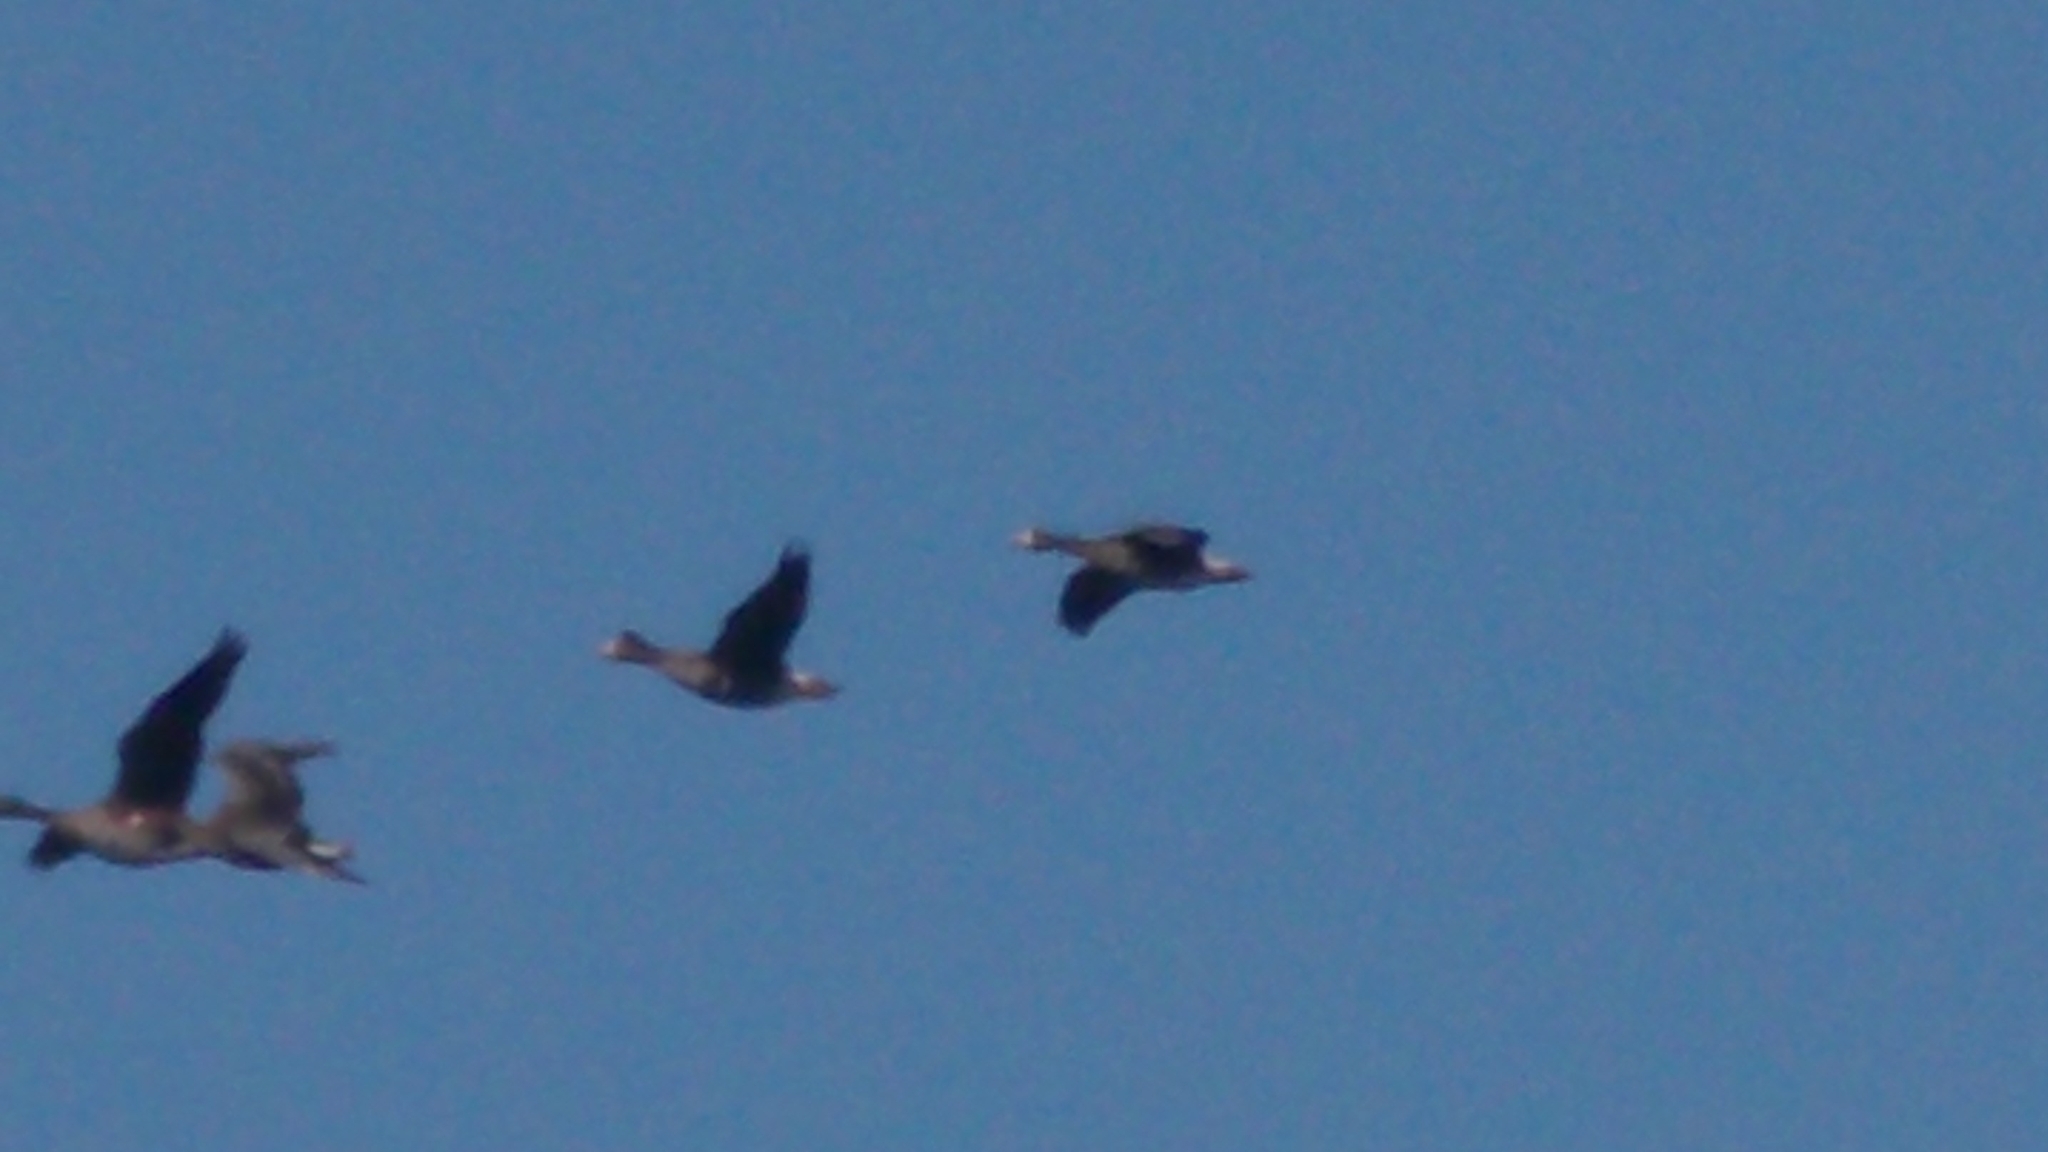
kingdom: Animalia
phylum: Chordata
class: Aves
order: Anseriformes
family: Anatidae
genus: Anser
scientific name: Anser albifrons
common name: Greater white-fronted goose
